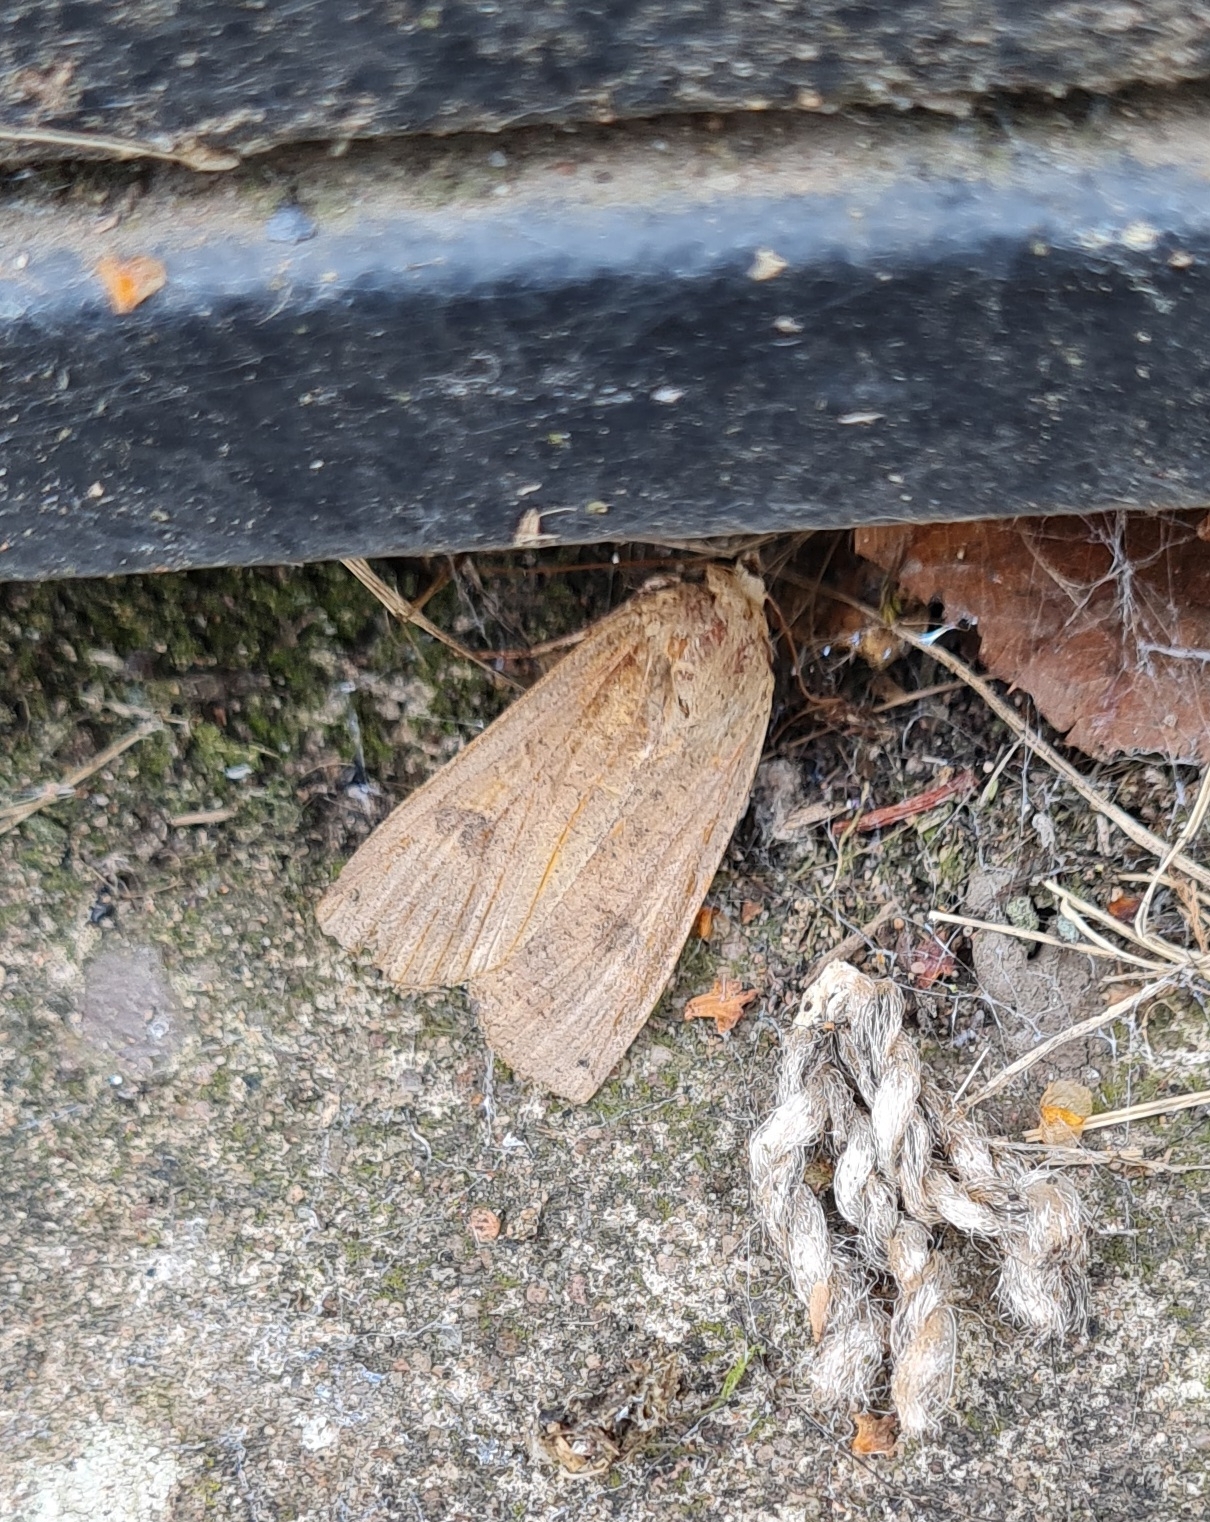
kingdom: Animalia
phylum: Arthropoda
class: Insecta
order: Lepidoptera
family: Noctuidae
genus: Noctua
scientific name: Noctua pronuba
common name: Large yellow underwing
